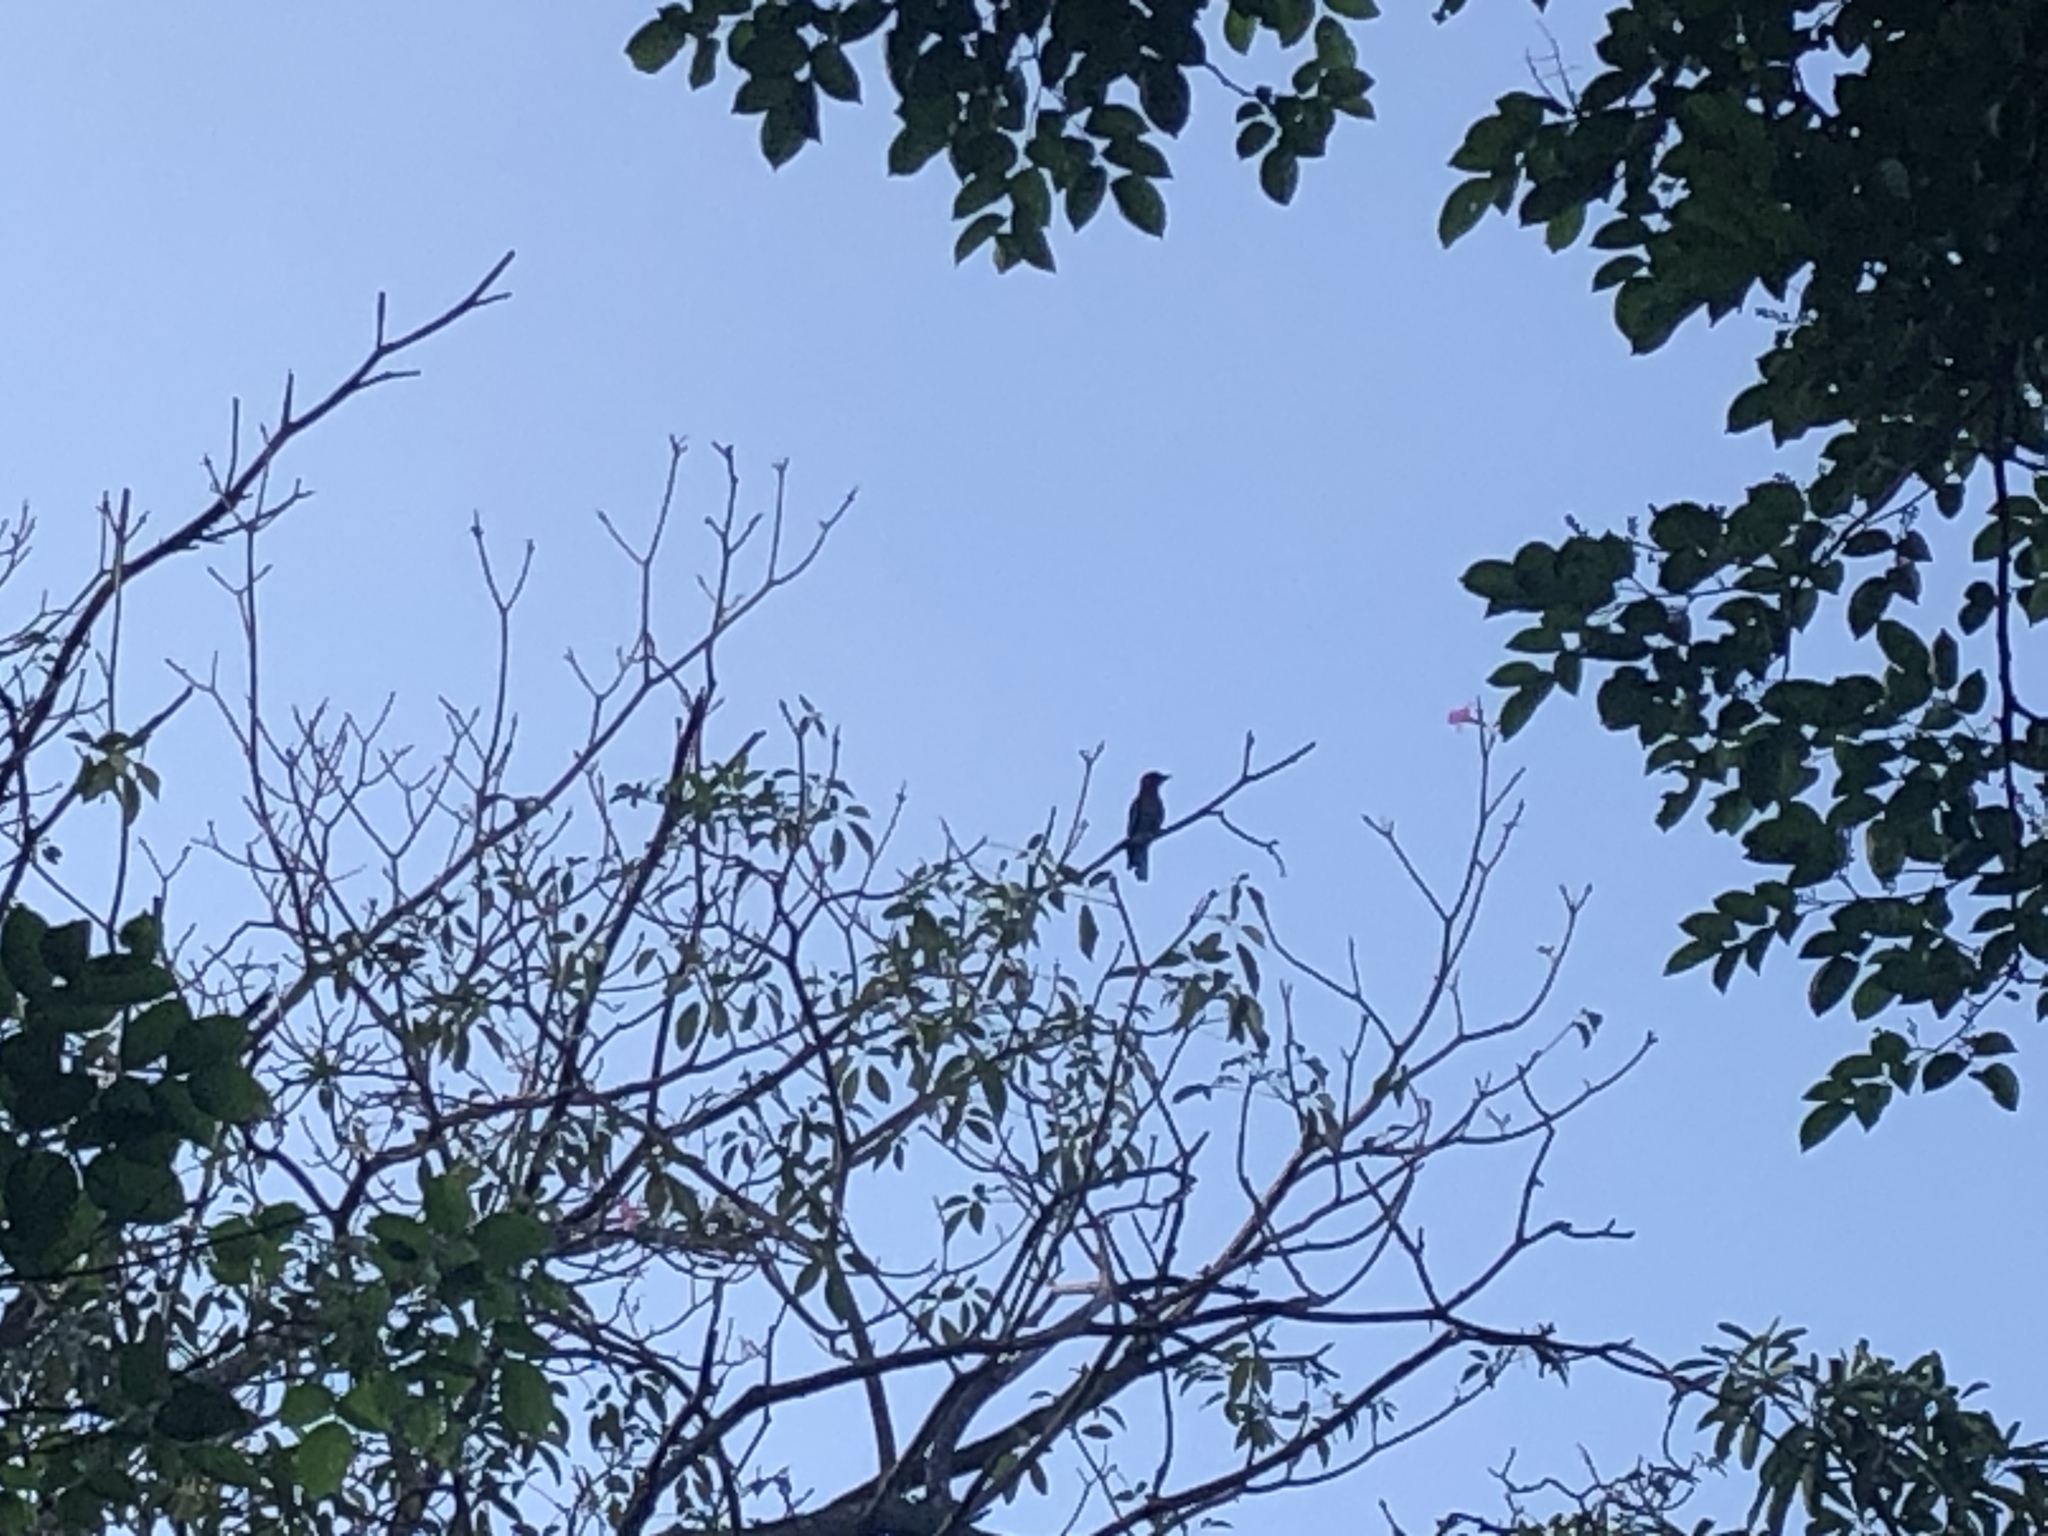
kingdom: Animalia
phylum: Chordata
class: Aves
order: Coraciiformes
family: Coraciidae
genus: Coracias
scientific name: Coracias affinis
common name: Indochinese roller
